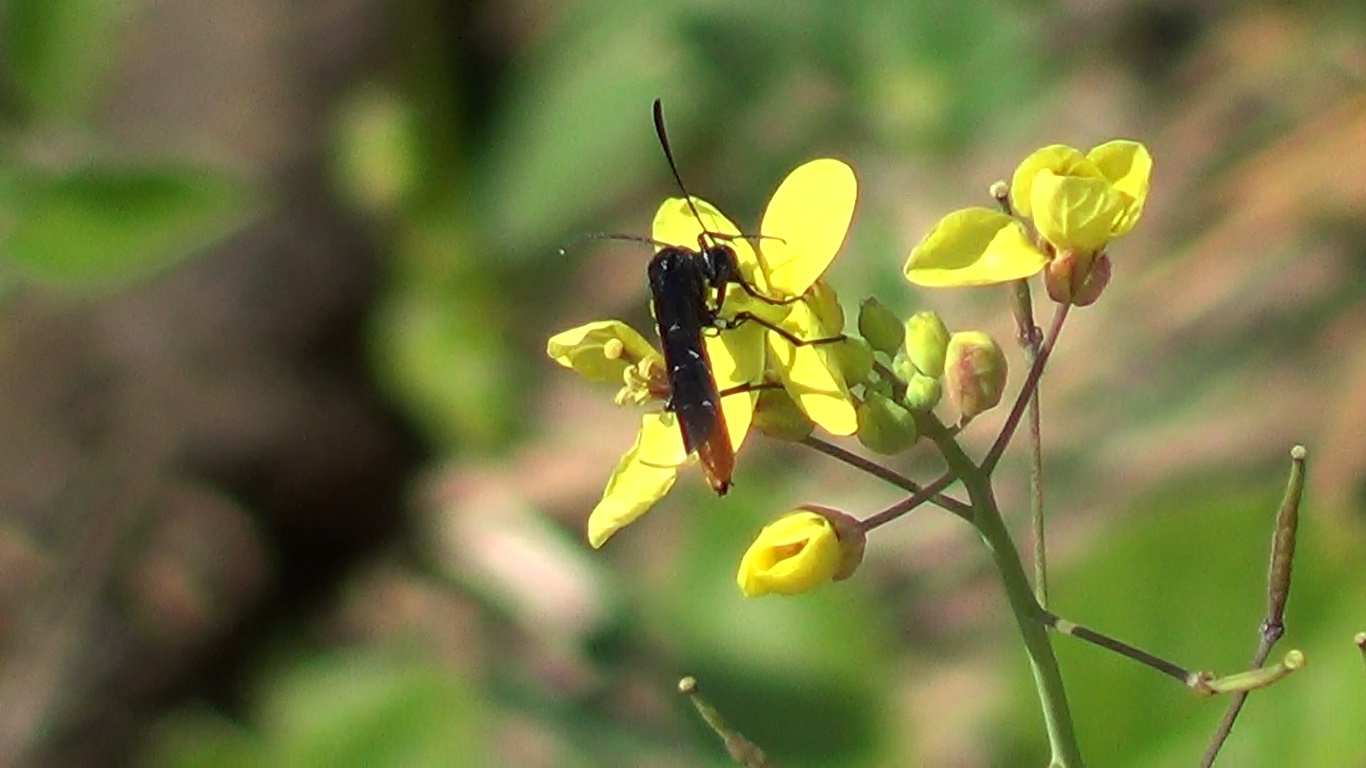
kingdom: Animalia
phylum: Arthropoda
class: Insecta
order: Hymenoptera
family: Ichneumonidae
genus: Ichneumon
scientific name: Ichneumon pygmaeus
